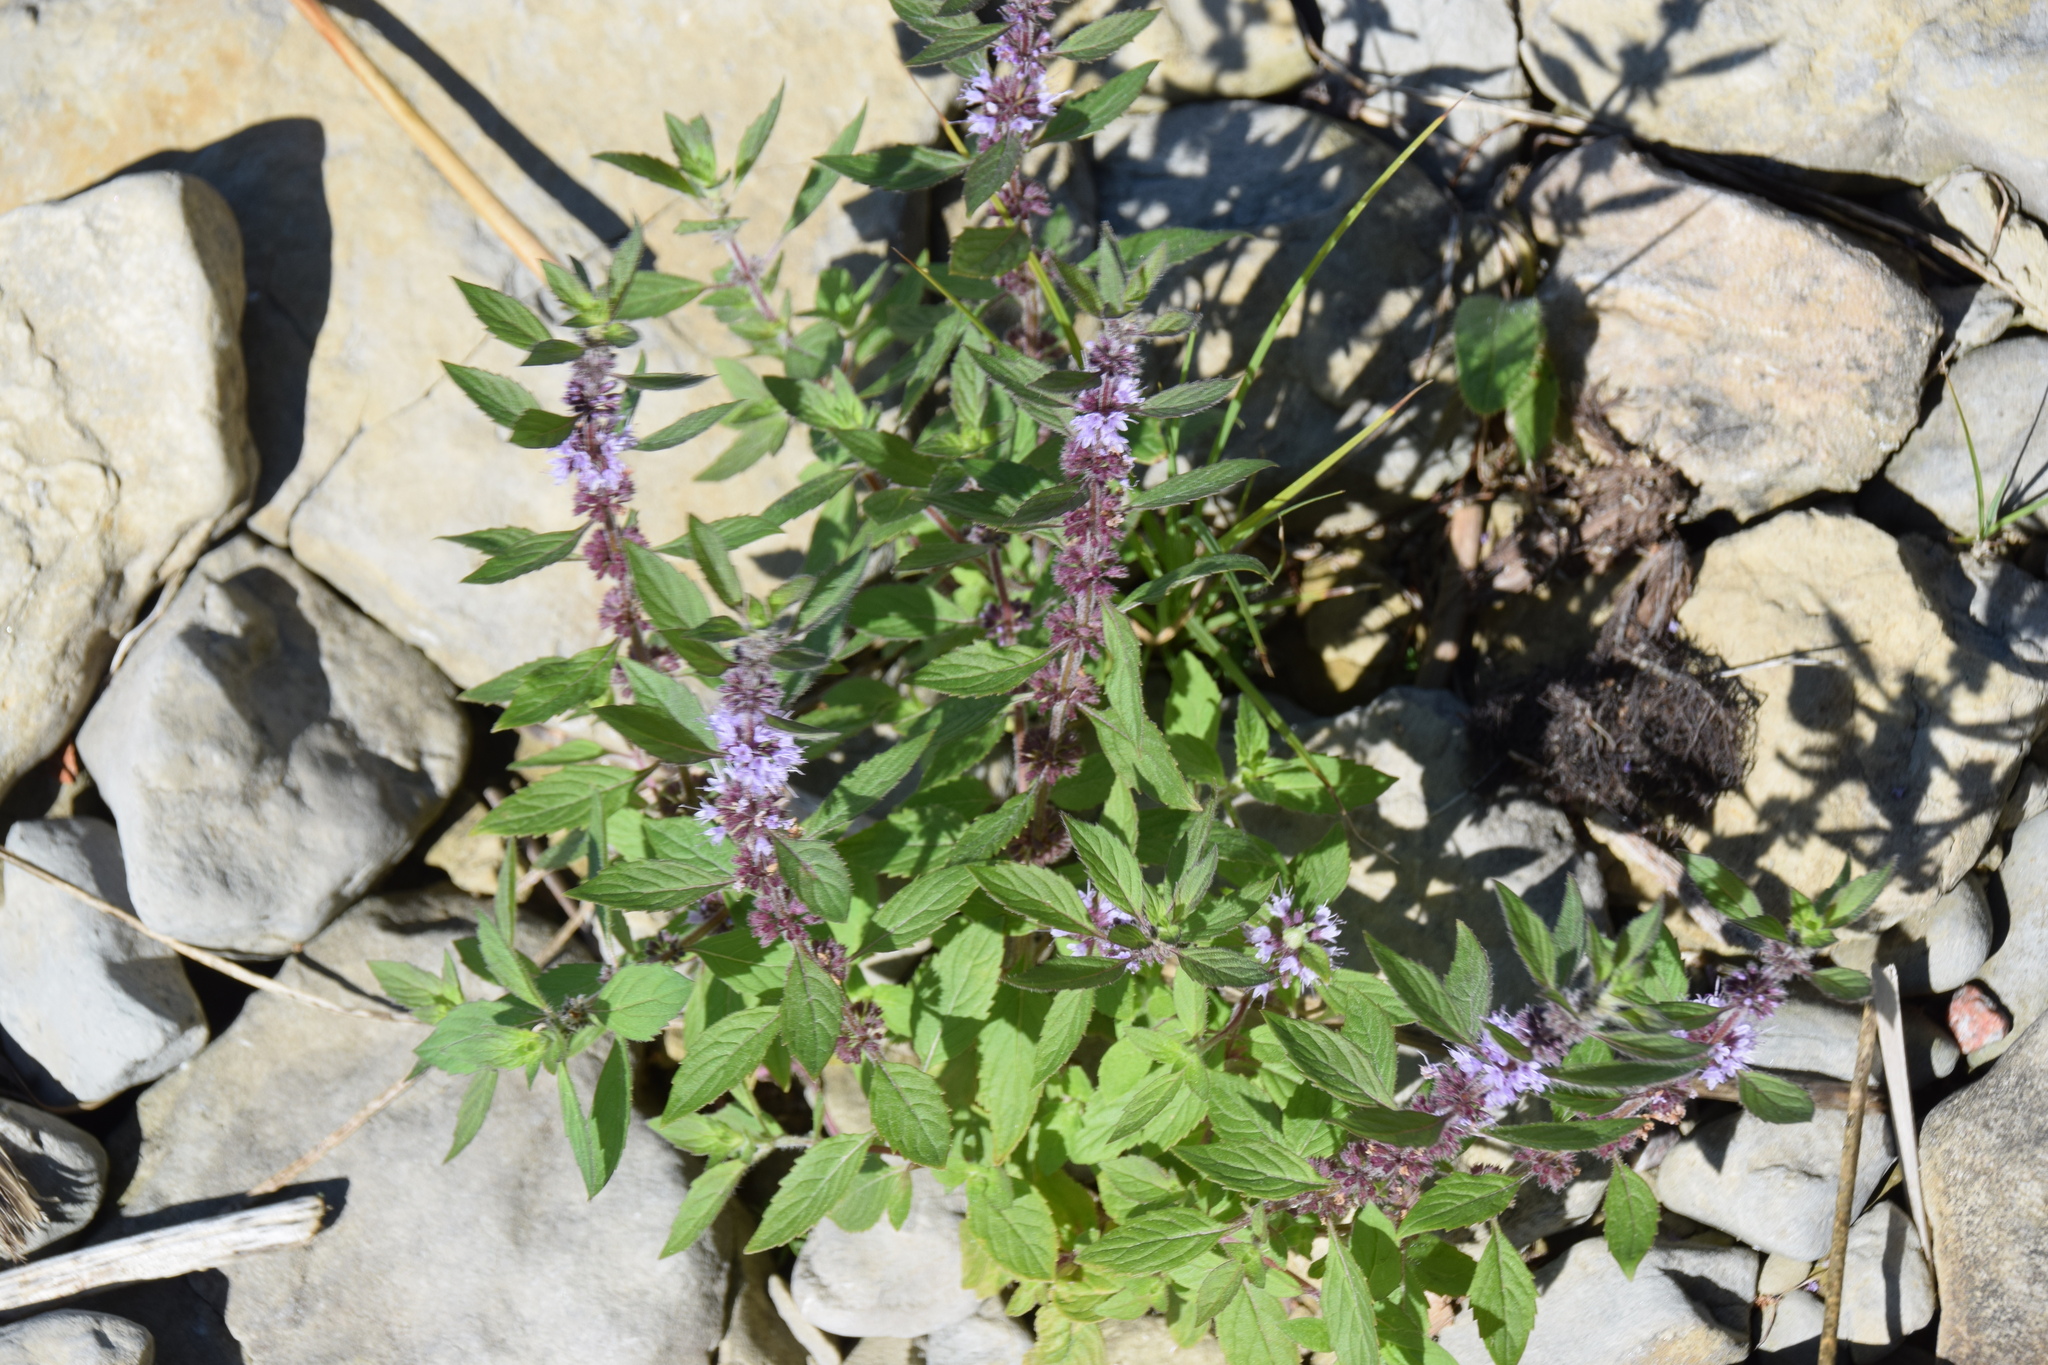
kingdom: Plantae
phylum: Tracheophyta
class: Magnoliopsida
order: Lamiales
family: Lamiaceae
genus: Mentha
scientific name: Mentha canadensis
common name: American corn mint
